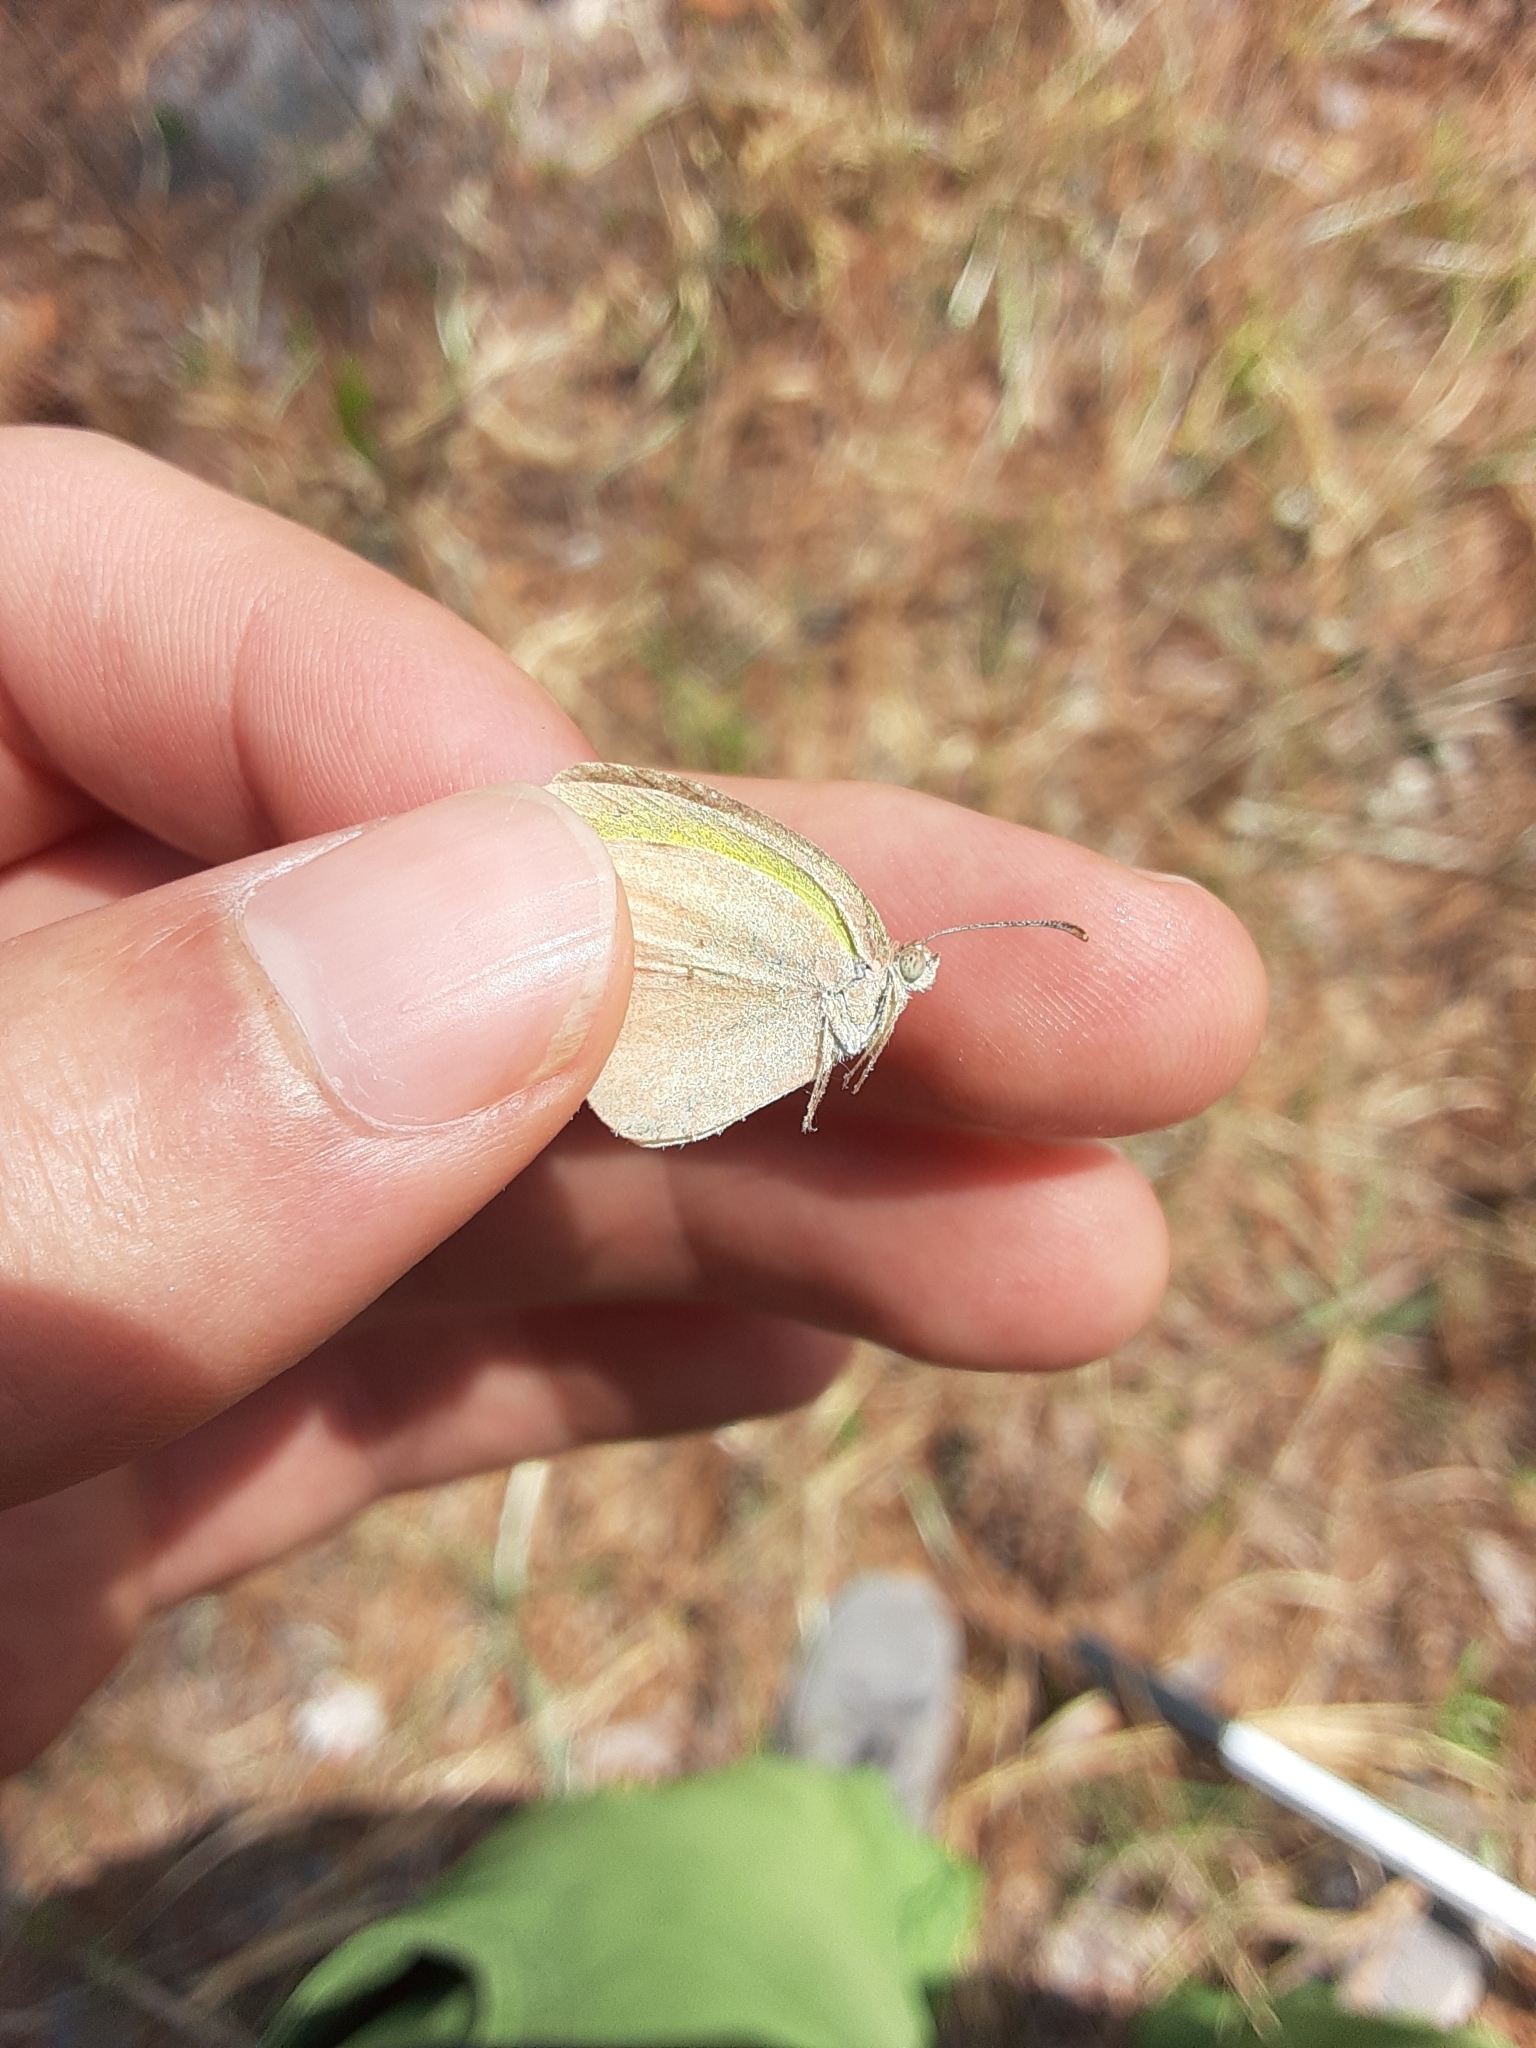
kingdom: Animalia
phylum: Arthropoda
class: Insecta
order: Lepidoptera
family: Pieridae
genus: Eurema
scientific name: Eurema daira
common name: Barred sulphur
